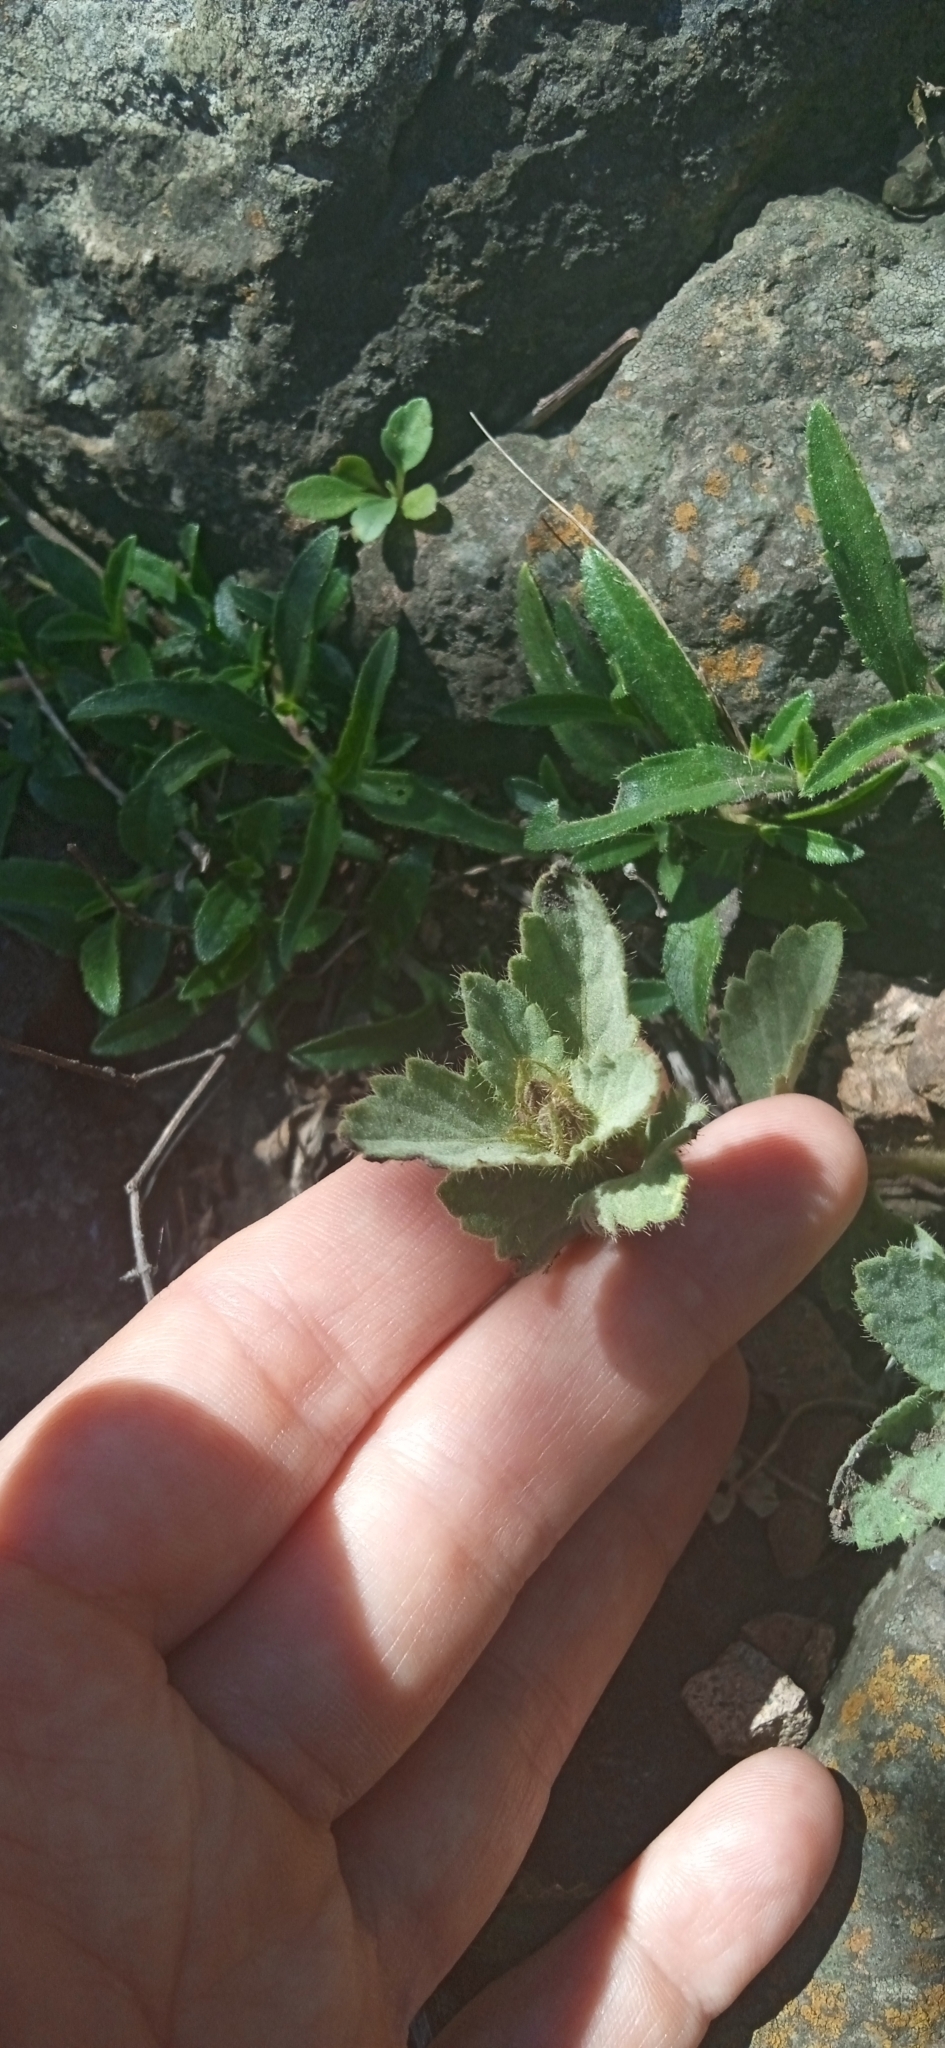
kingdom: Plantae
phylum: Tracheophyta
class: Magnoliopsida
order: Malvales
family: Malvaceae
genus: Krapovickasia
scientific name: Krapovickasia flavescens
